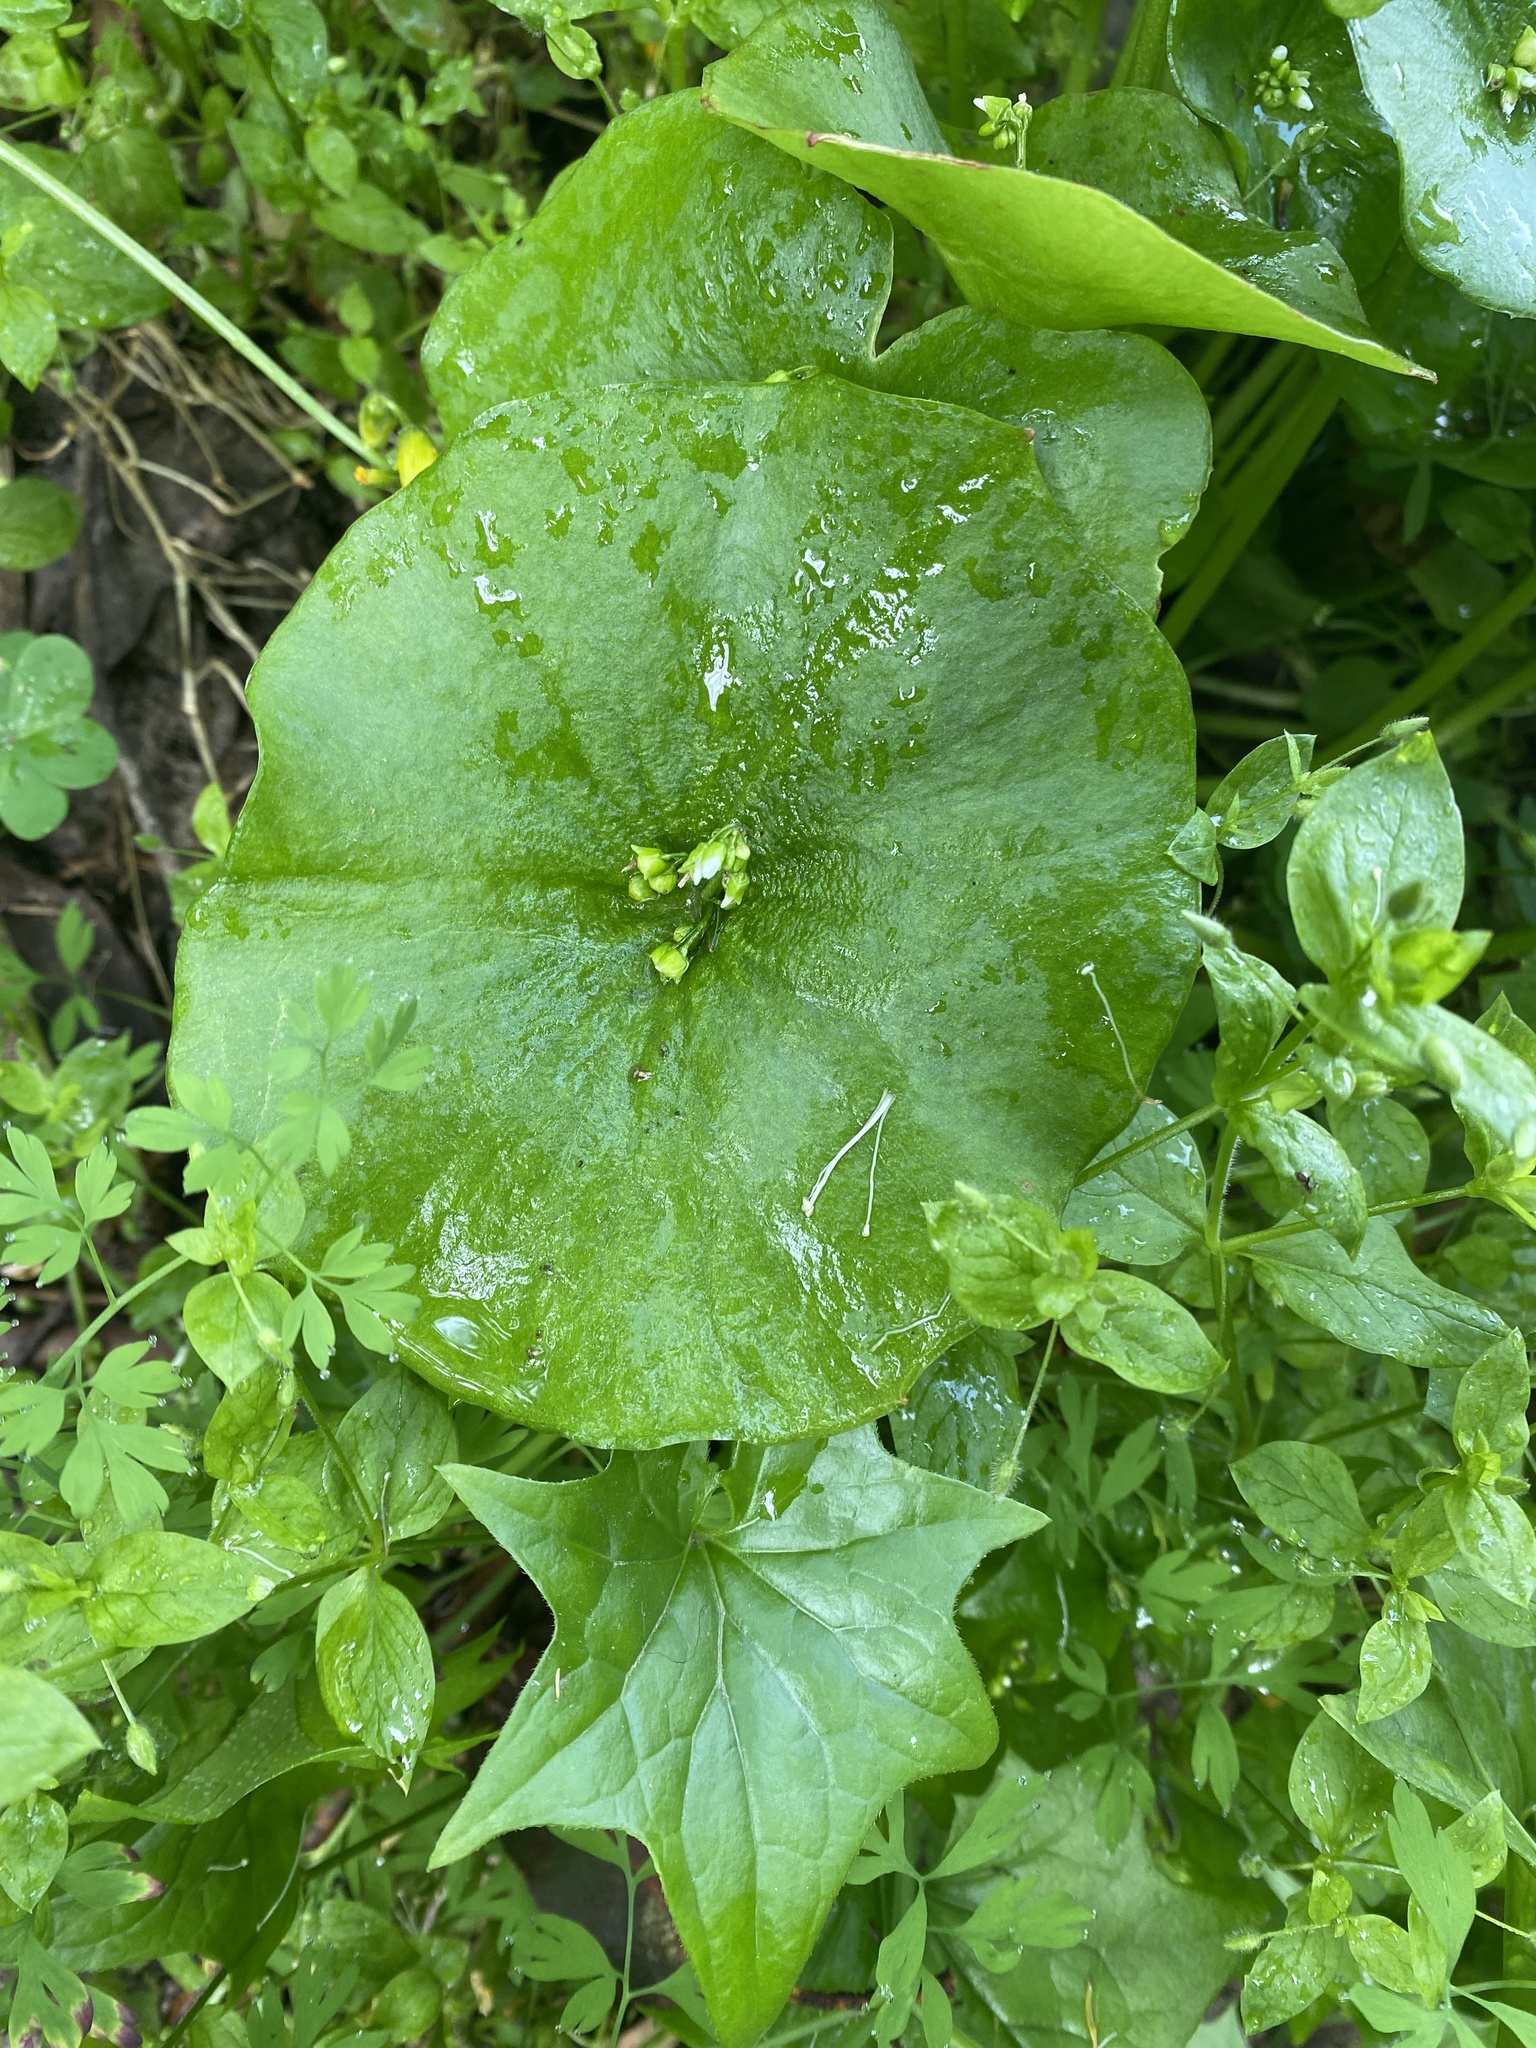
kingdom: Plantae
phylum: Tracheophyta
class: Magnoliopsida
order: Caryophyllales
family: Montiaceae
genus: Claytonia
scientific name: Claytonia perfoliata
